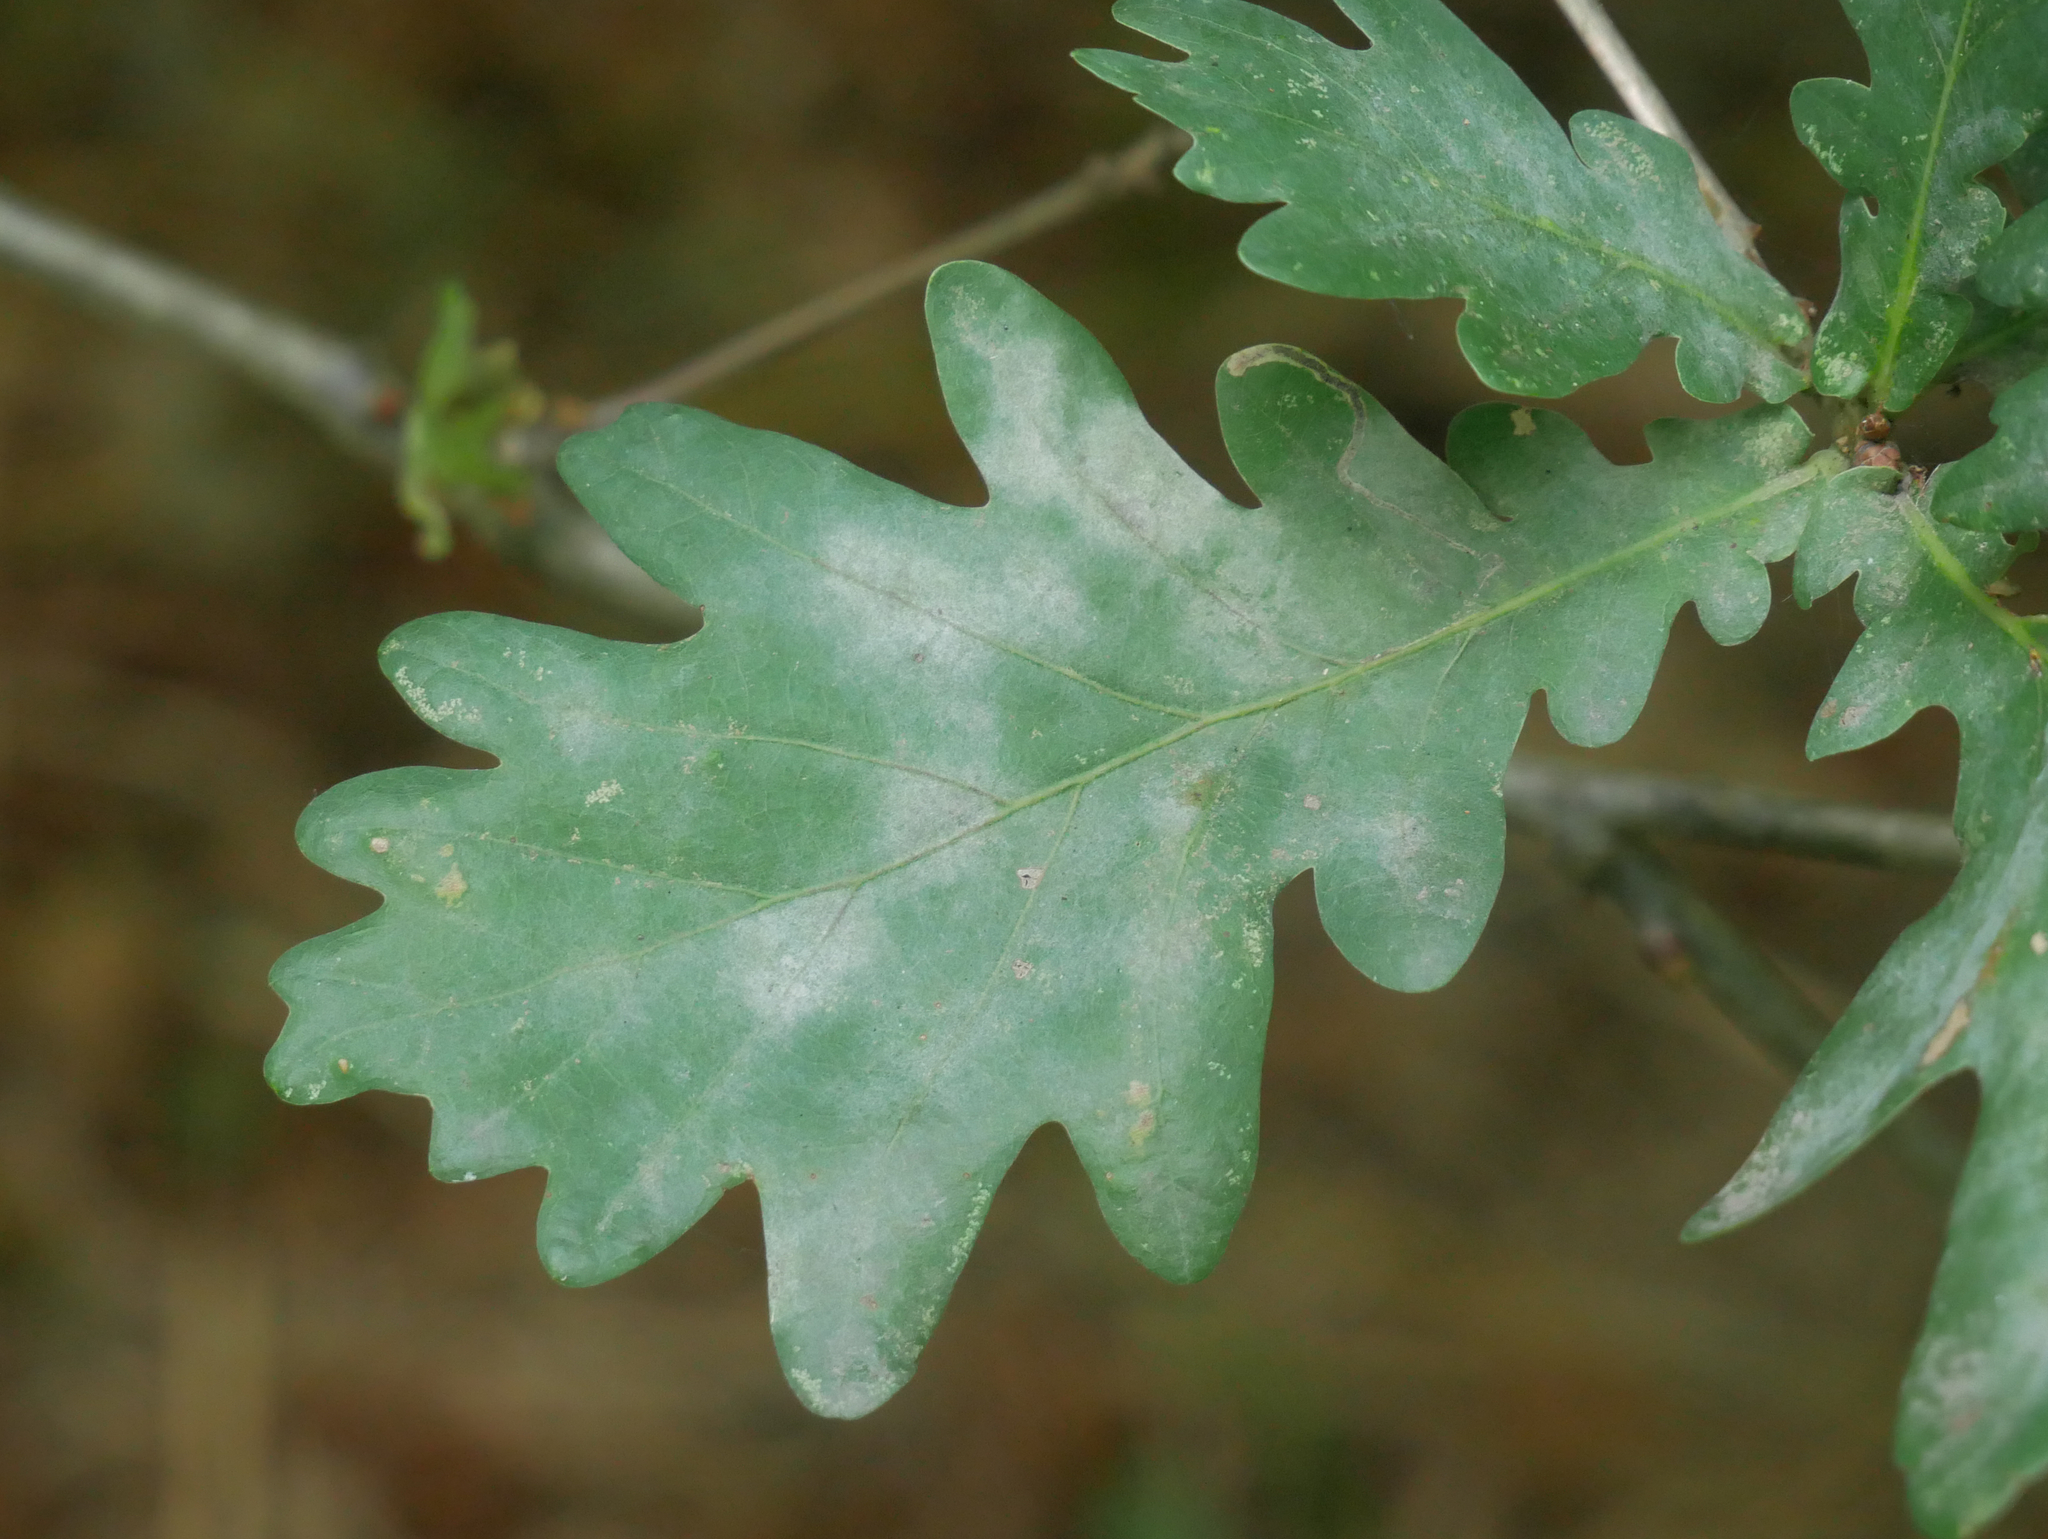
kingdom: Fungi
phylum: Ascomycota
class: Leotiomycetes
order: Helotiales
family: Erysiphaceae
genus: Erysiphe
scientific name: Erysiphe
